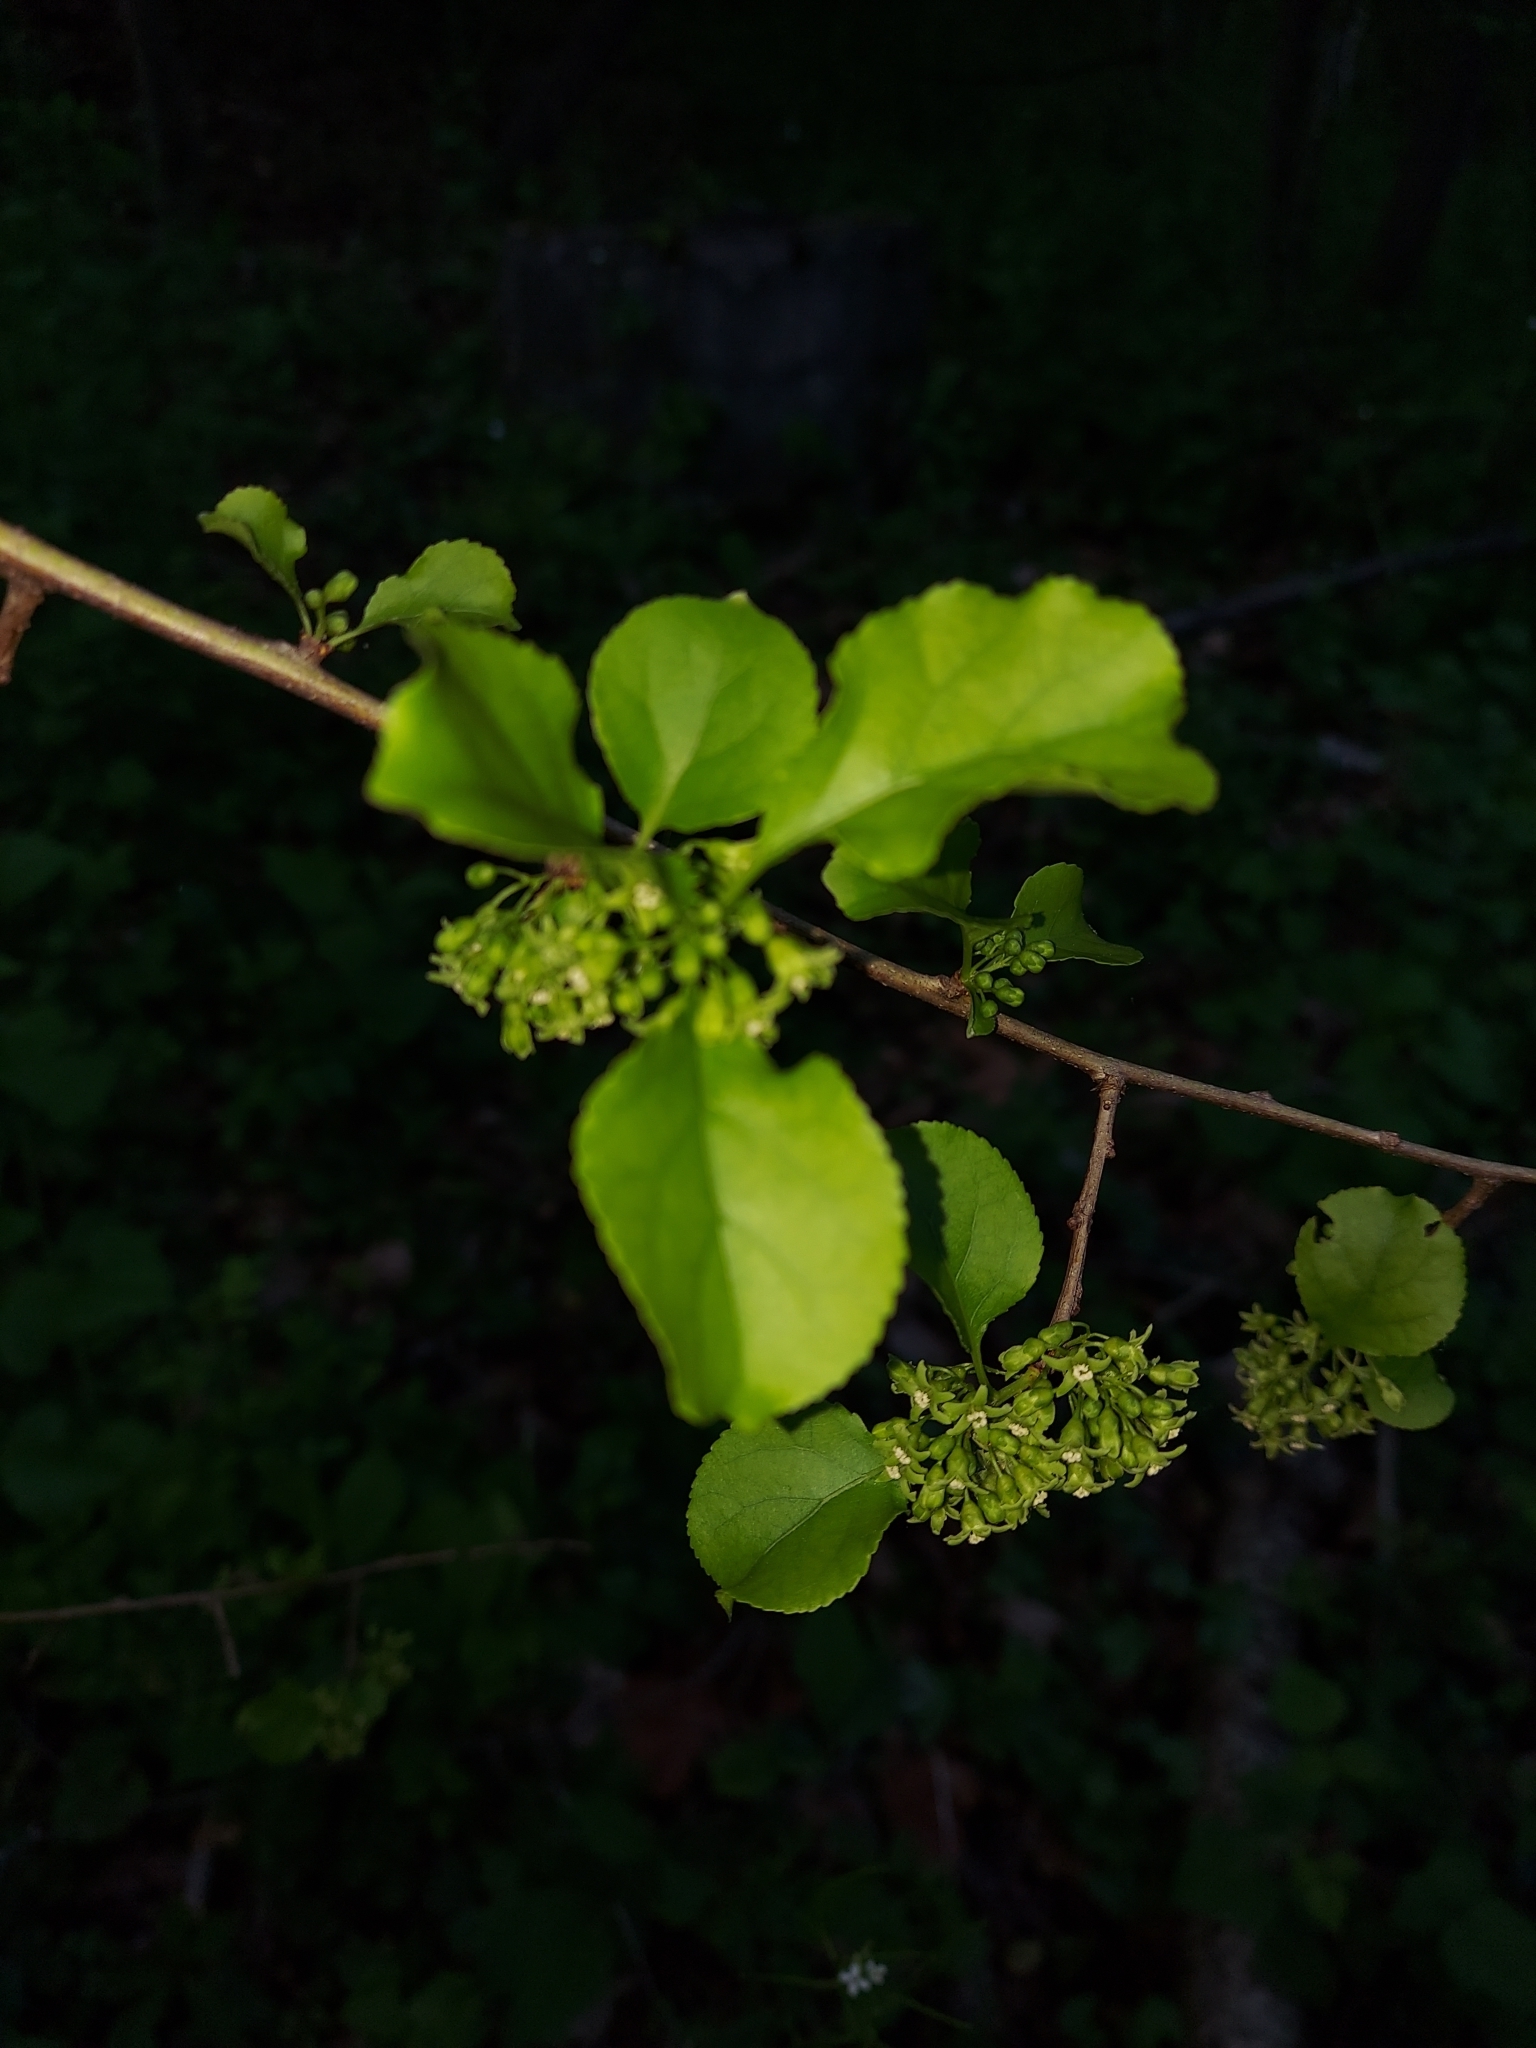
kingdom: Plantae
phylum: Tracheophyta
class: Magnoliopsida
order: Celastrales
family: Celastraceae
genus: Celastrus
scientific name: Celastrus orbiculatus
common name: Oriental bittersweet
